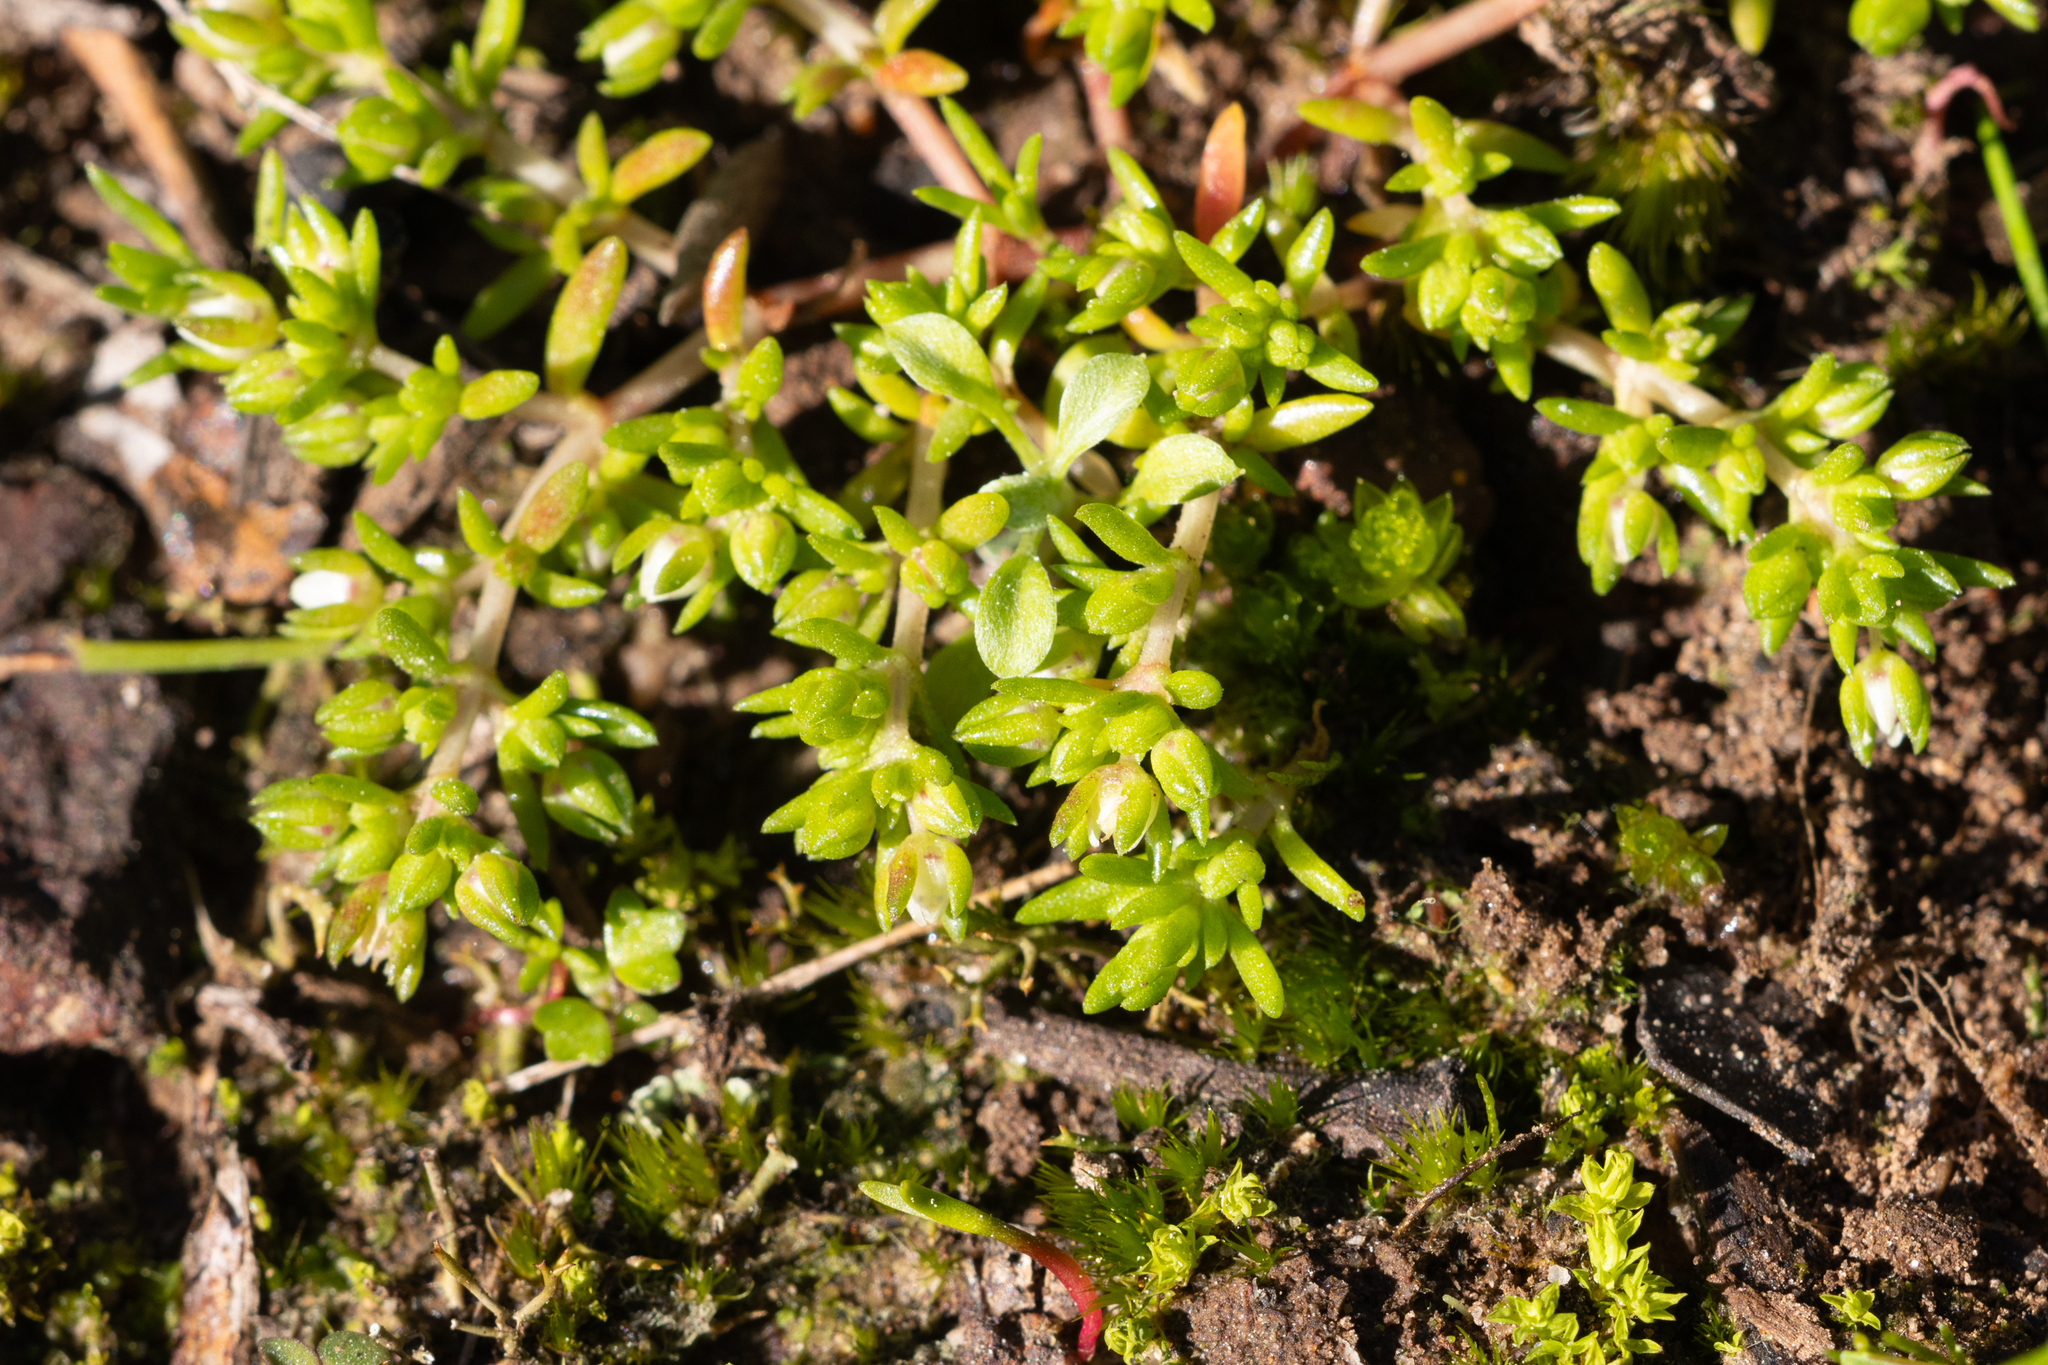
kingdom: Plantae
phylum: Tracheophyta
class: Magnoliopsida
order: Saxifragales
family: Crassulaceae
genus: Crassula
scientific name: Crassula decumbens
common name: Scilly pigmyweed
